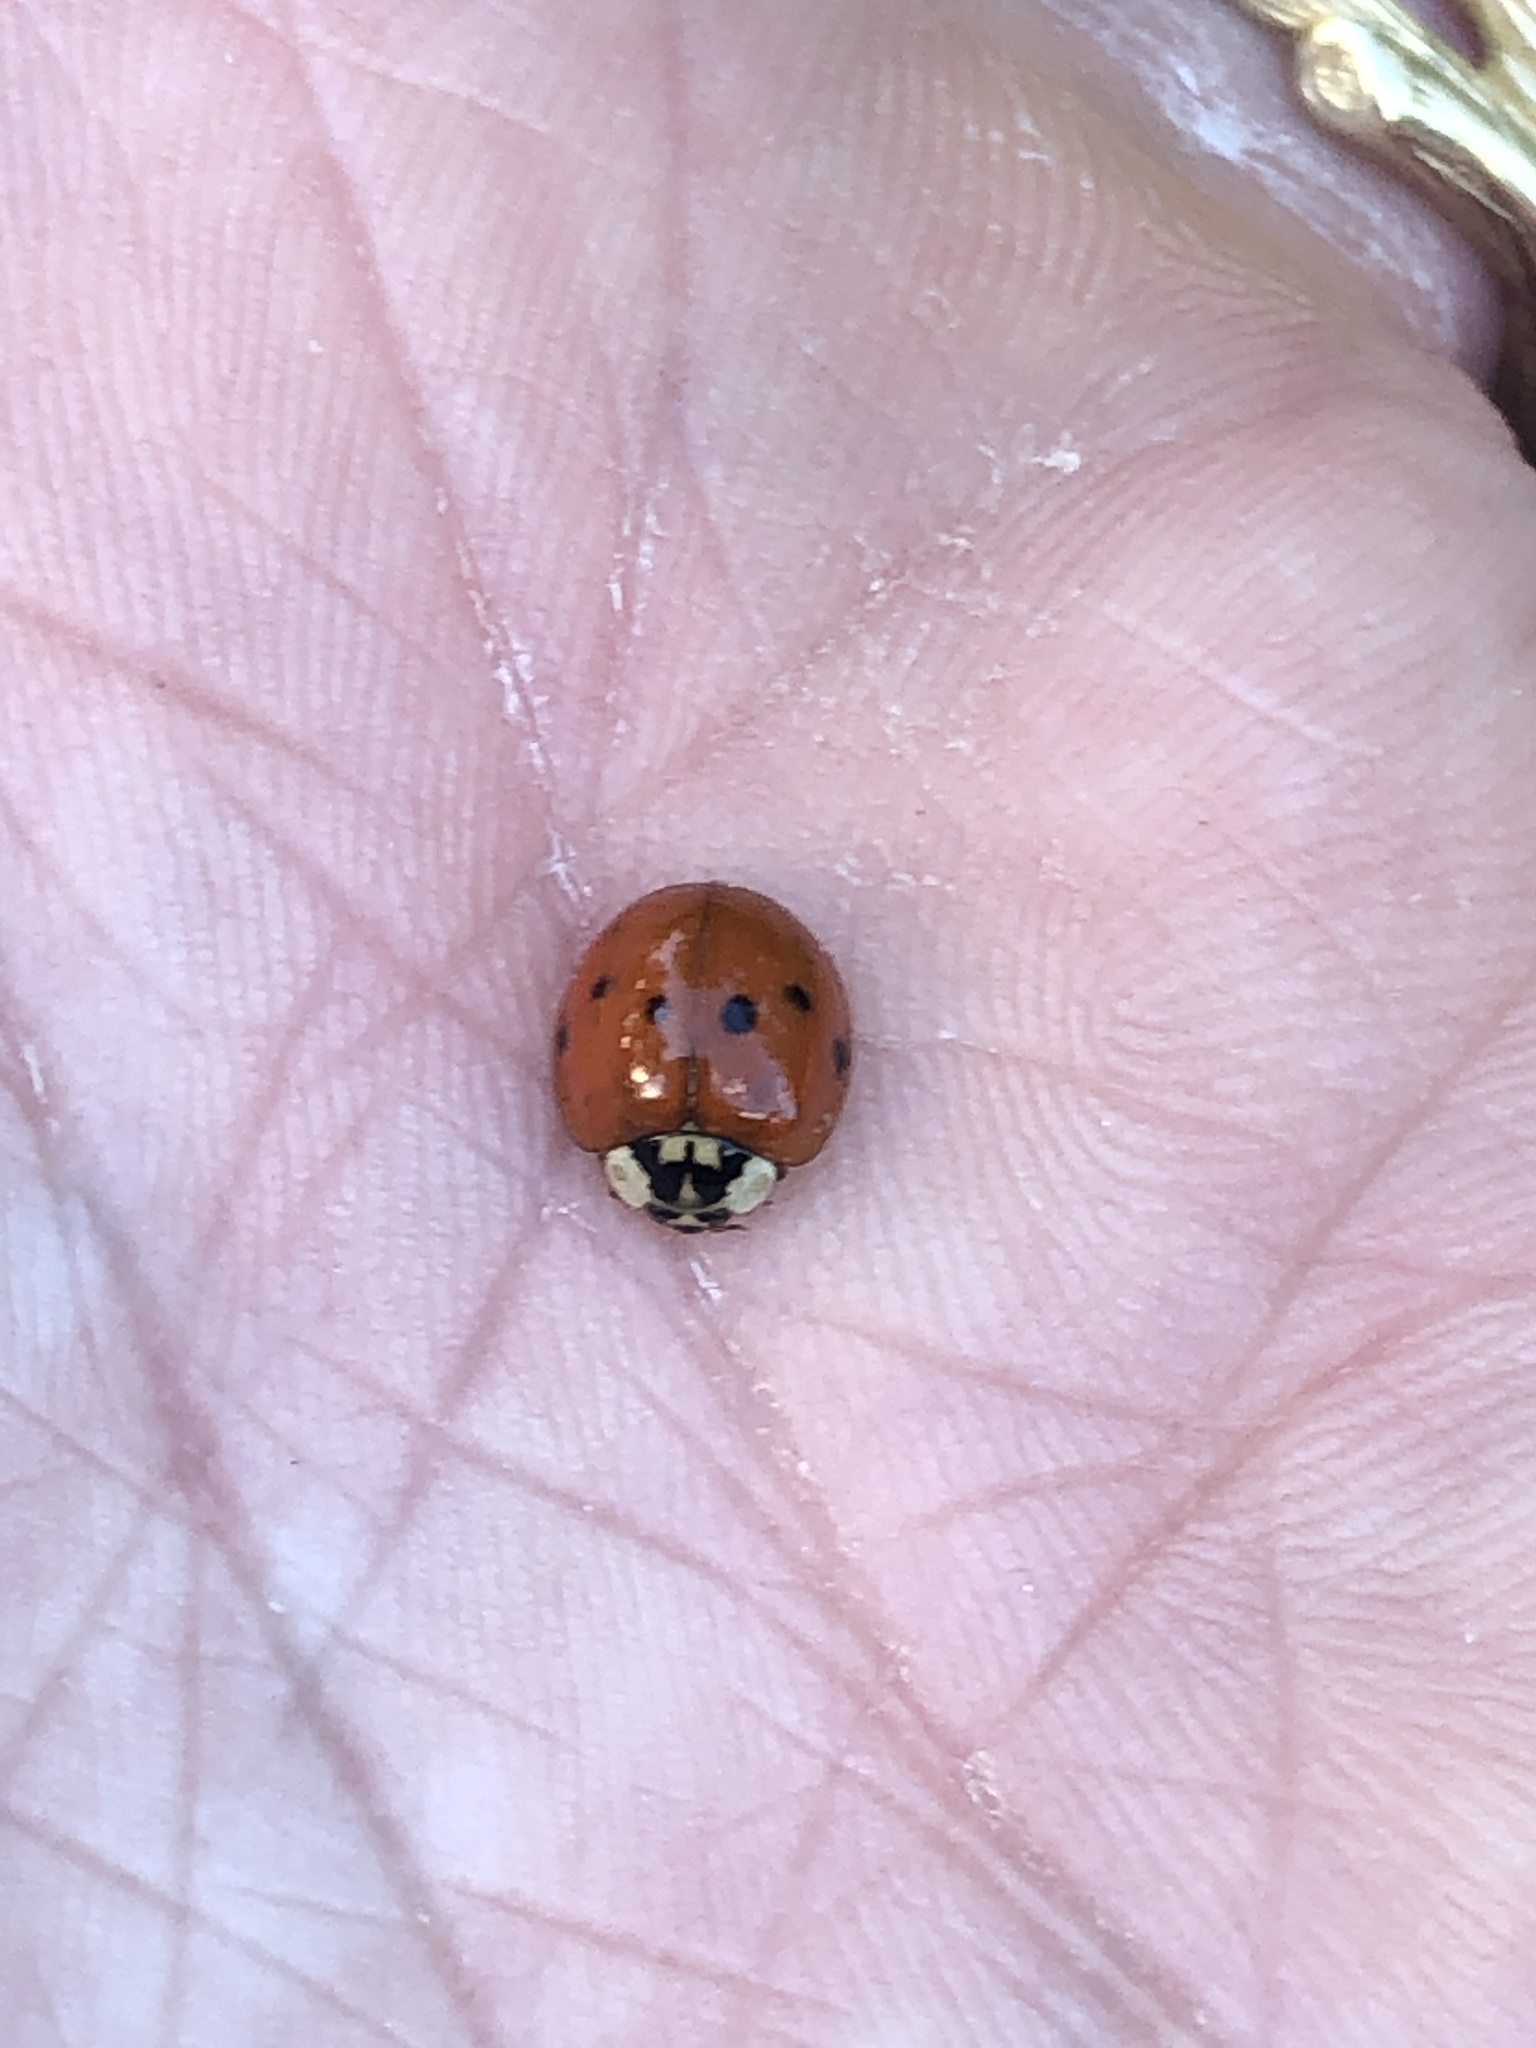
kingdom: Animalia
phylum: Arthropoda
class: Insecta
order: Coleoptera
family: Coccinellidae
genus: Harmonia
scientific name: Harmonia axyridis
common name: Harlequin ladybird
